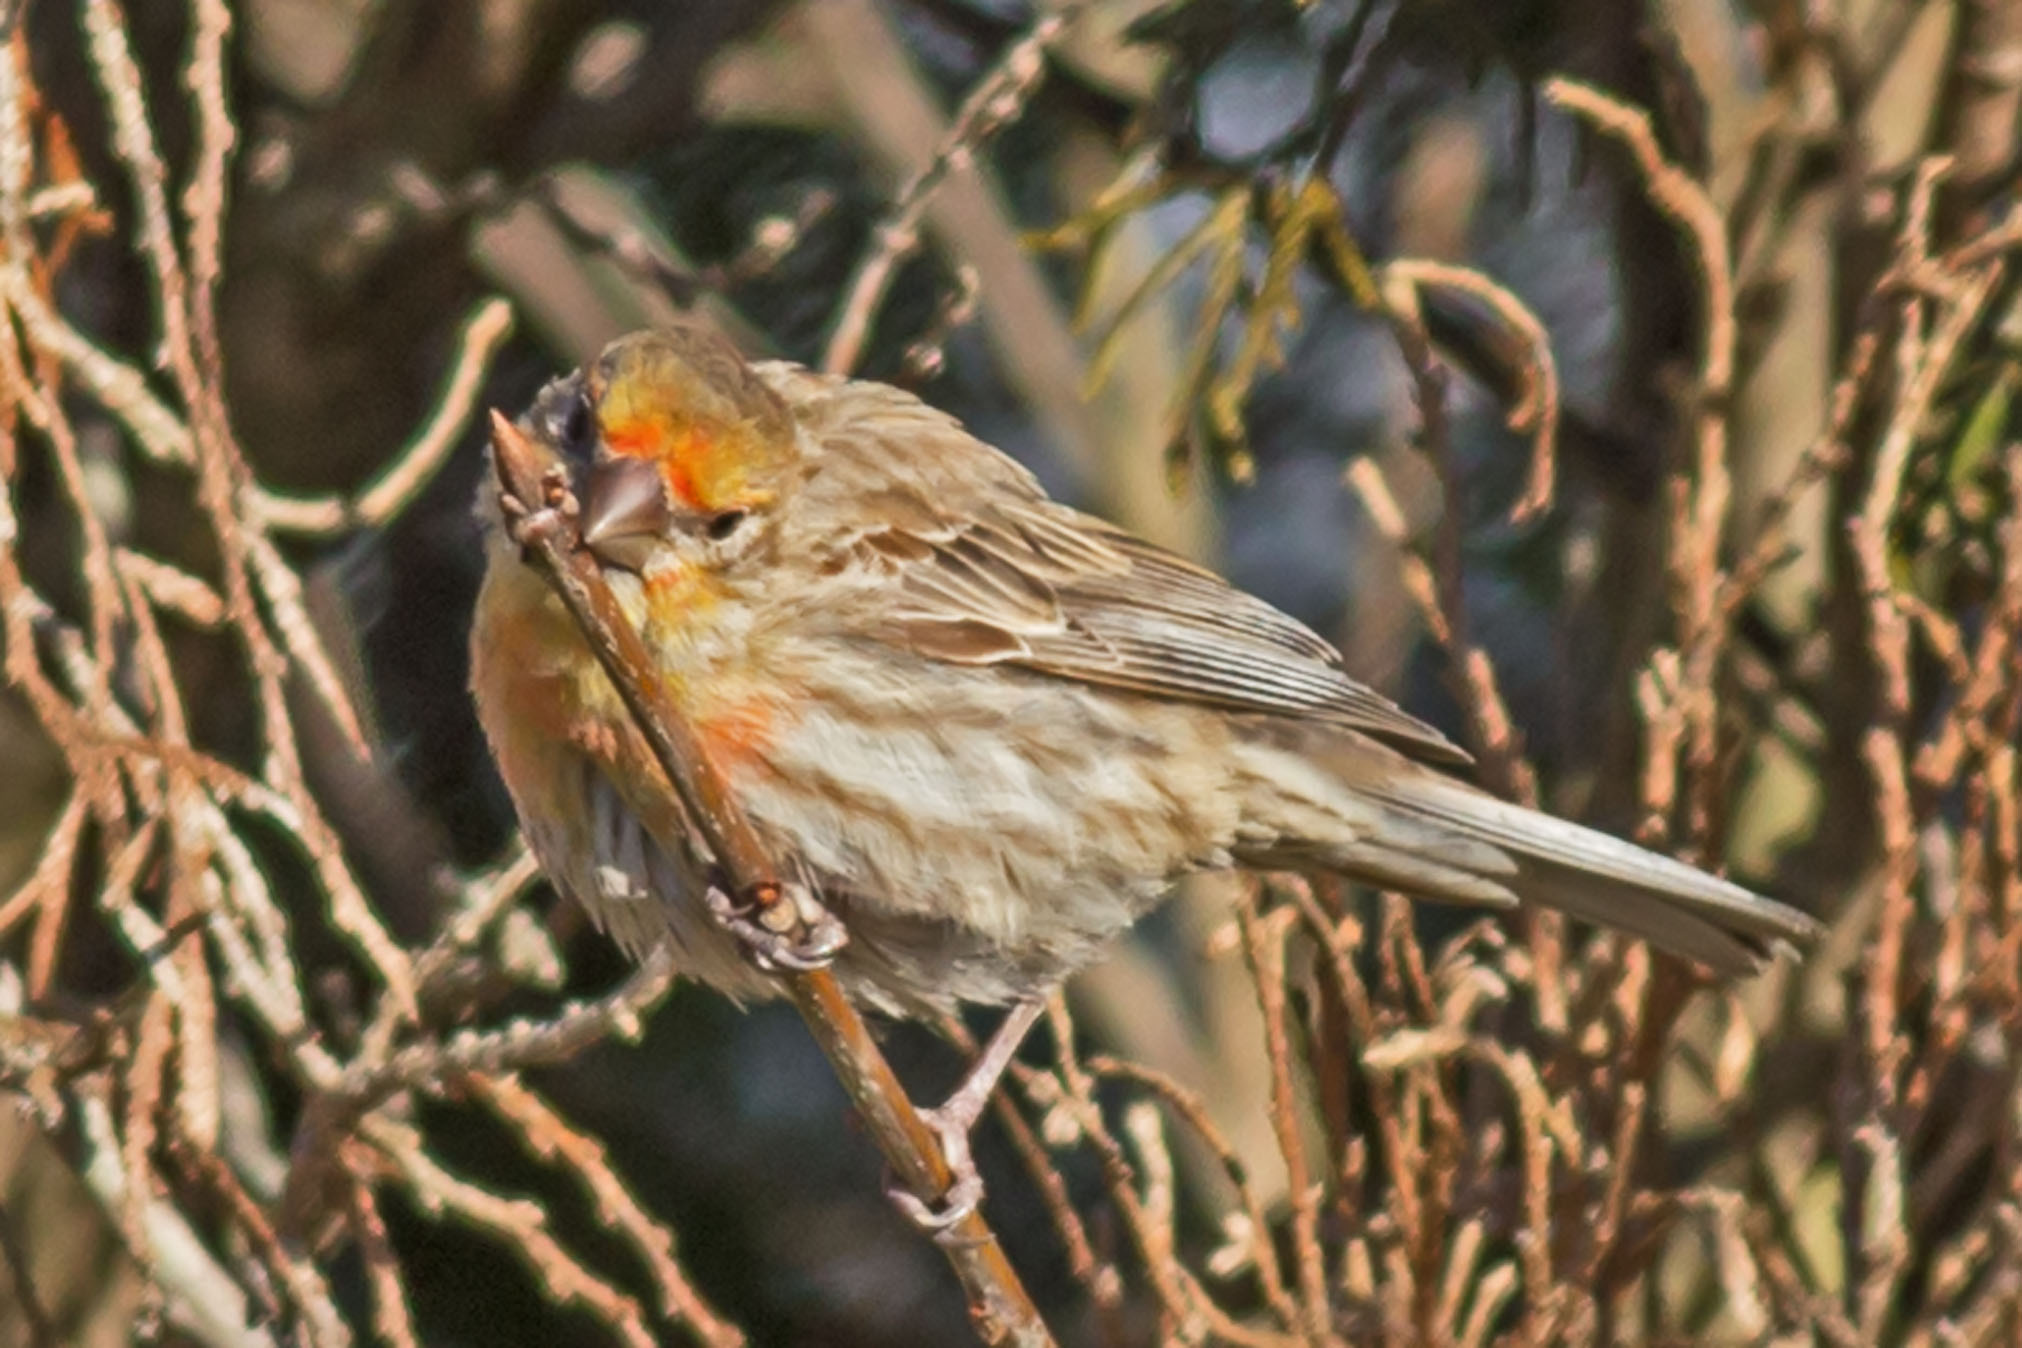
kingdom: Animalia
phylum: Chordata
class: Aves
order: Passeriformes
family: Fringillidae
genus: Haemorhous
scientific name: Haemorhous mexicanus
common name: House finch
